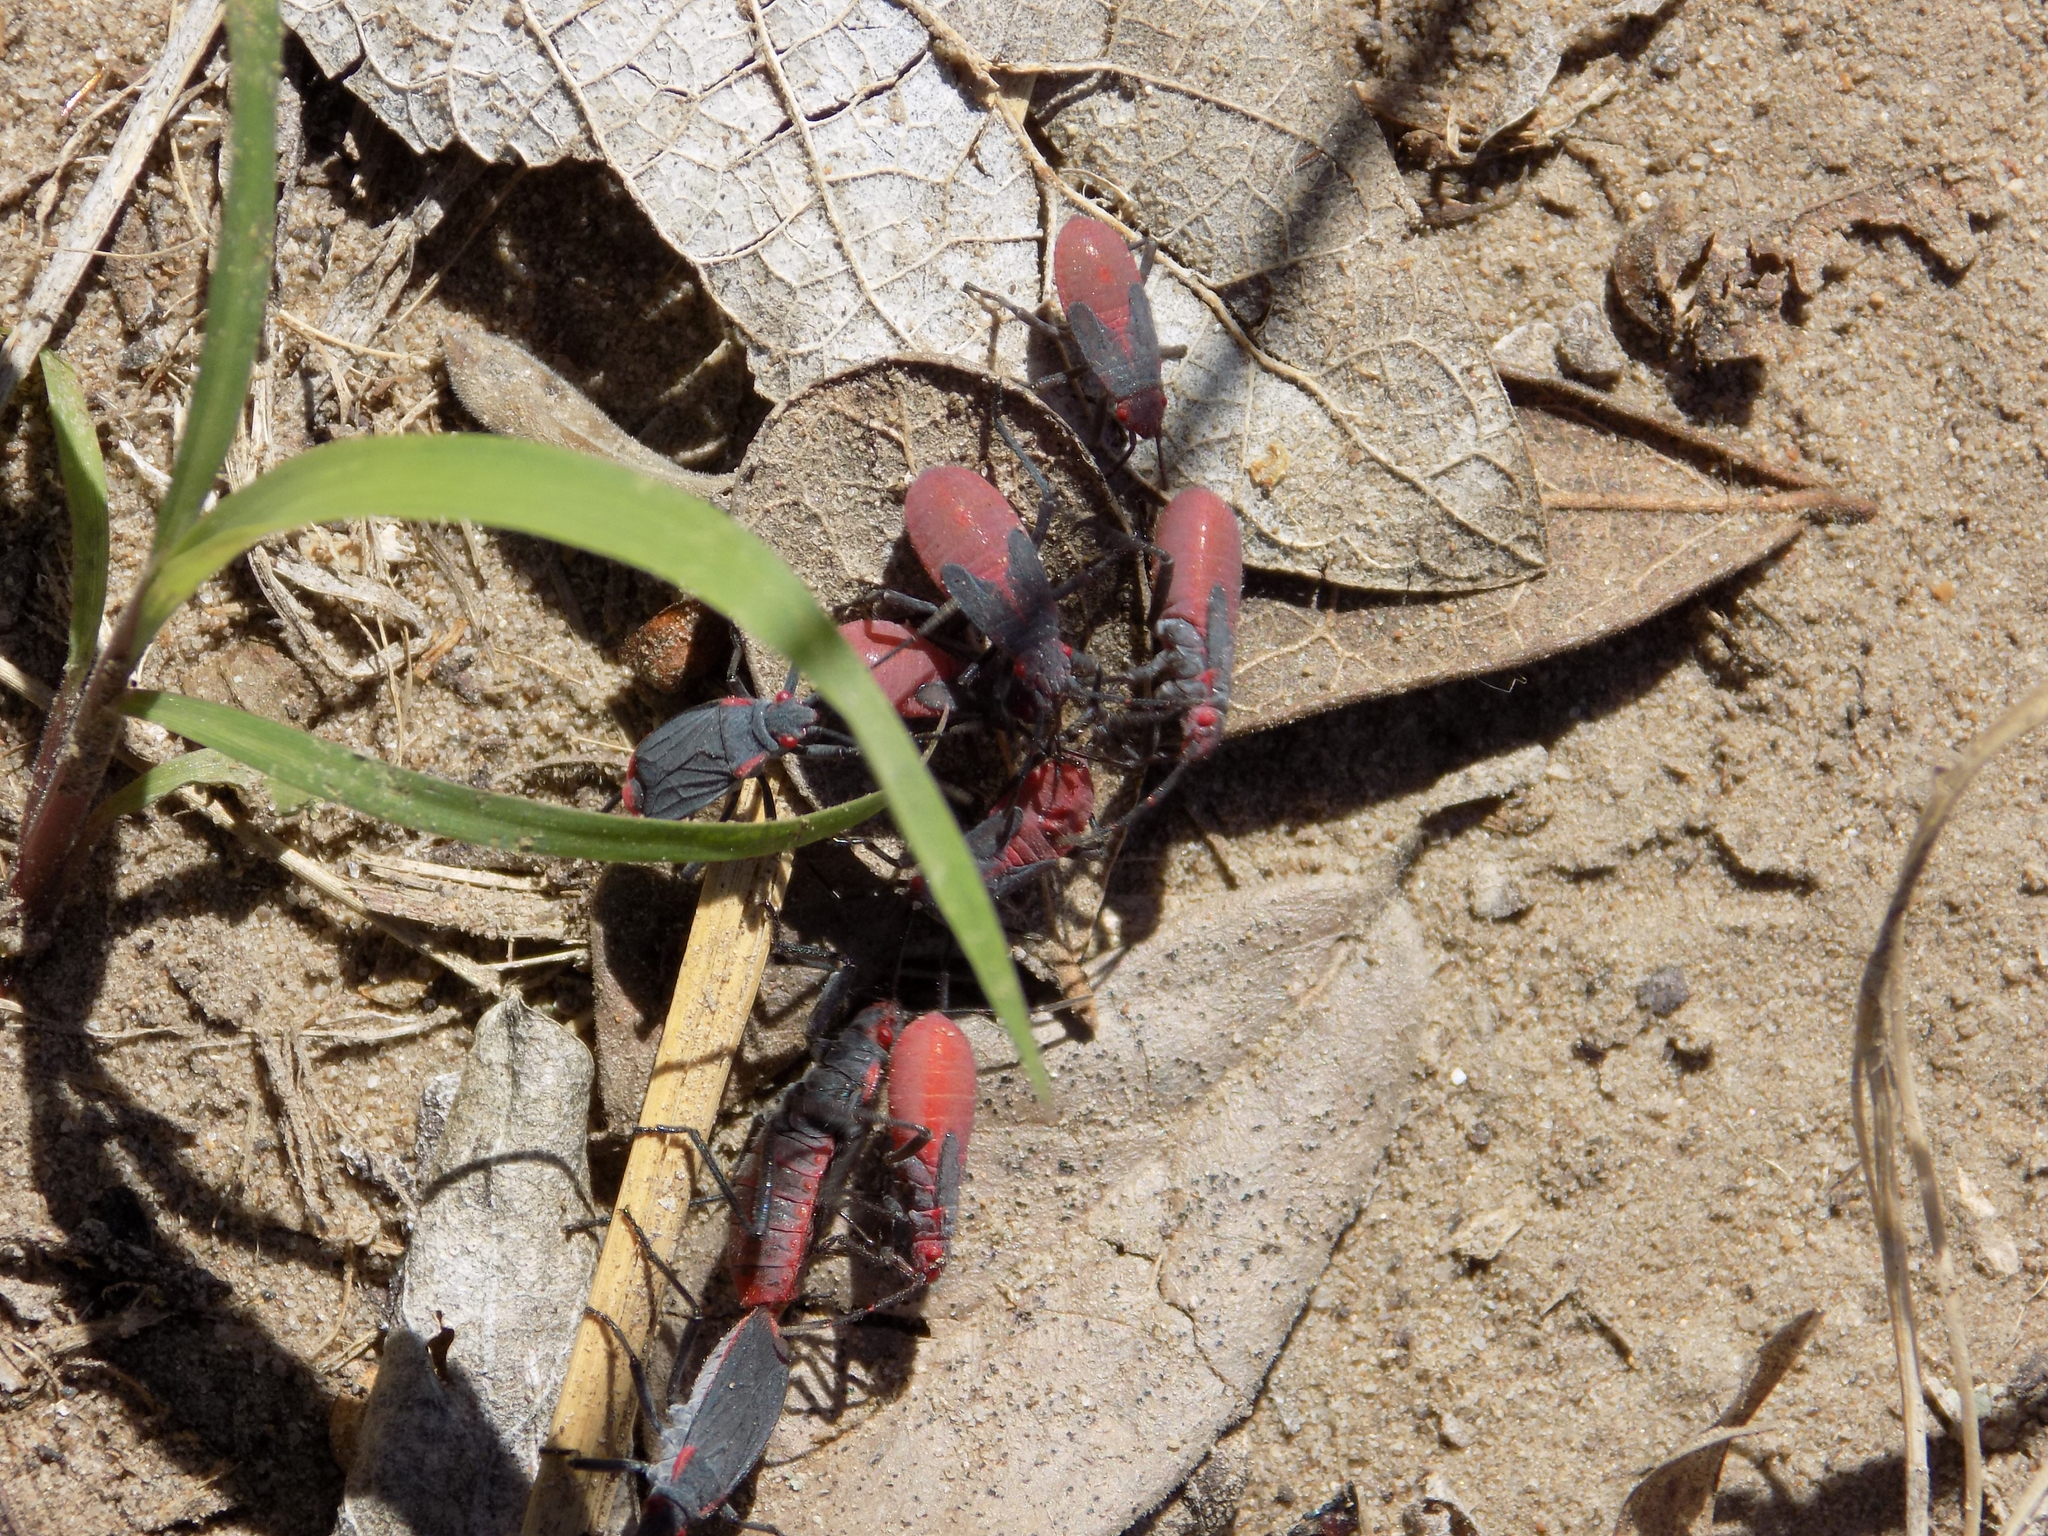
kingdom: Animalia
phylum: Arthropoda
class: Insecta
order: Hemiptera
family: Rhopalidae
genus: Jadera
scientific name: Jadera haematoloma
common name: Red-shouldered bug
